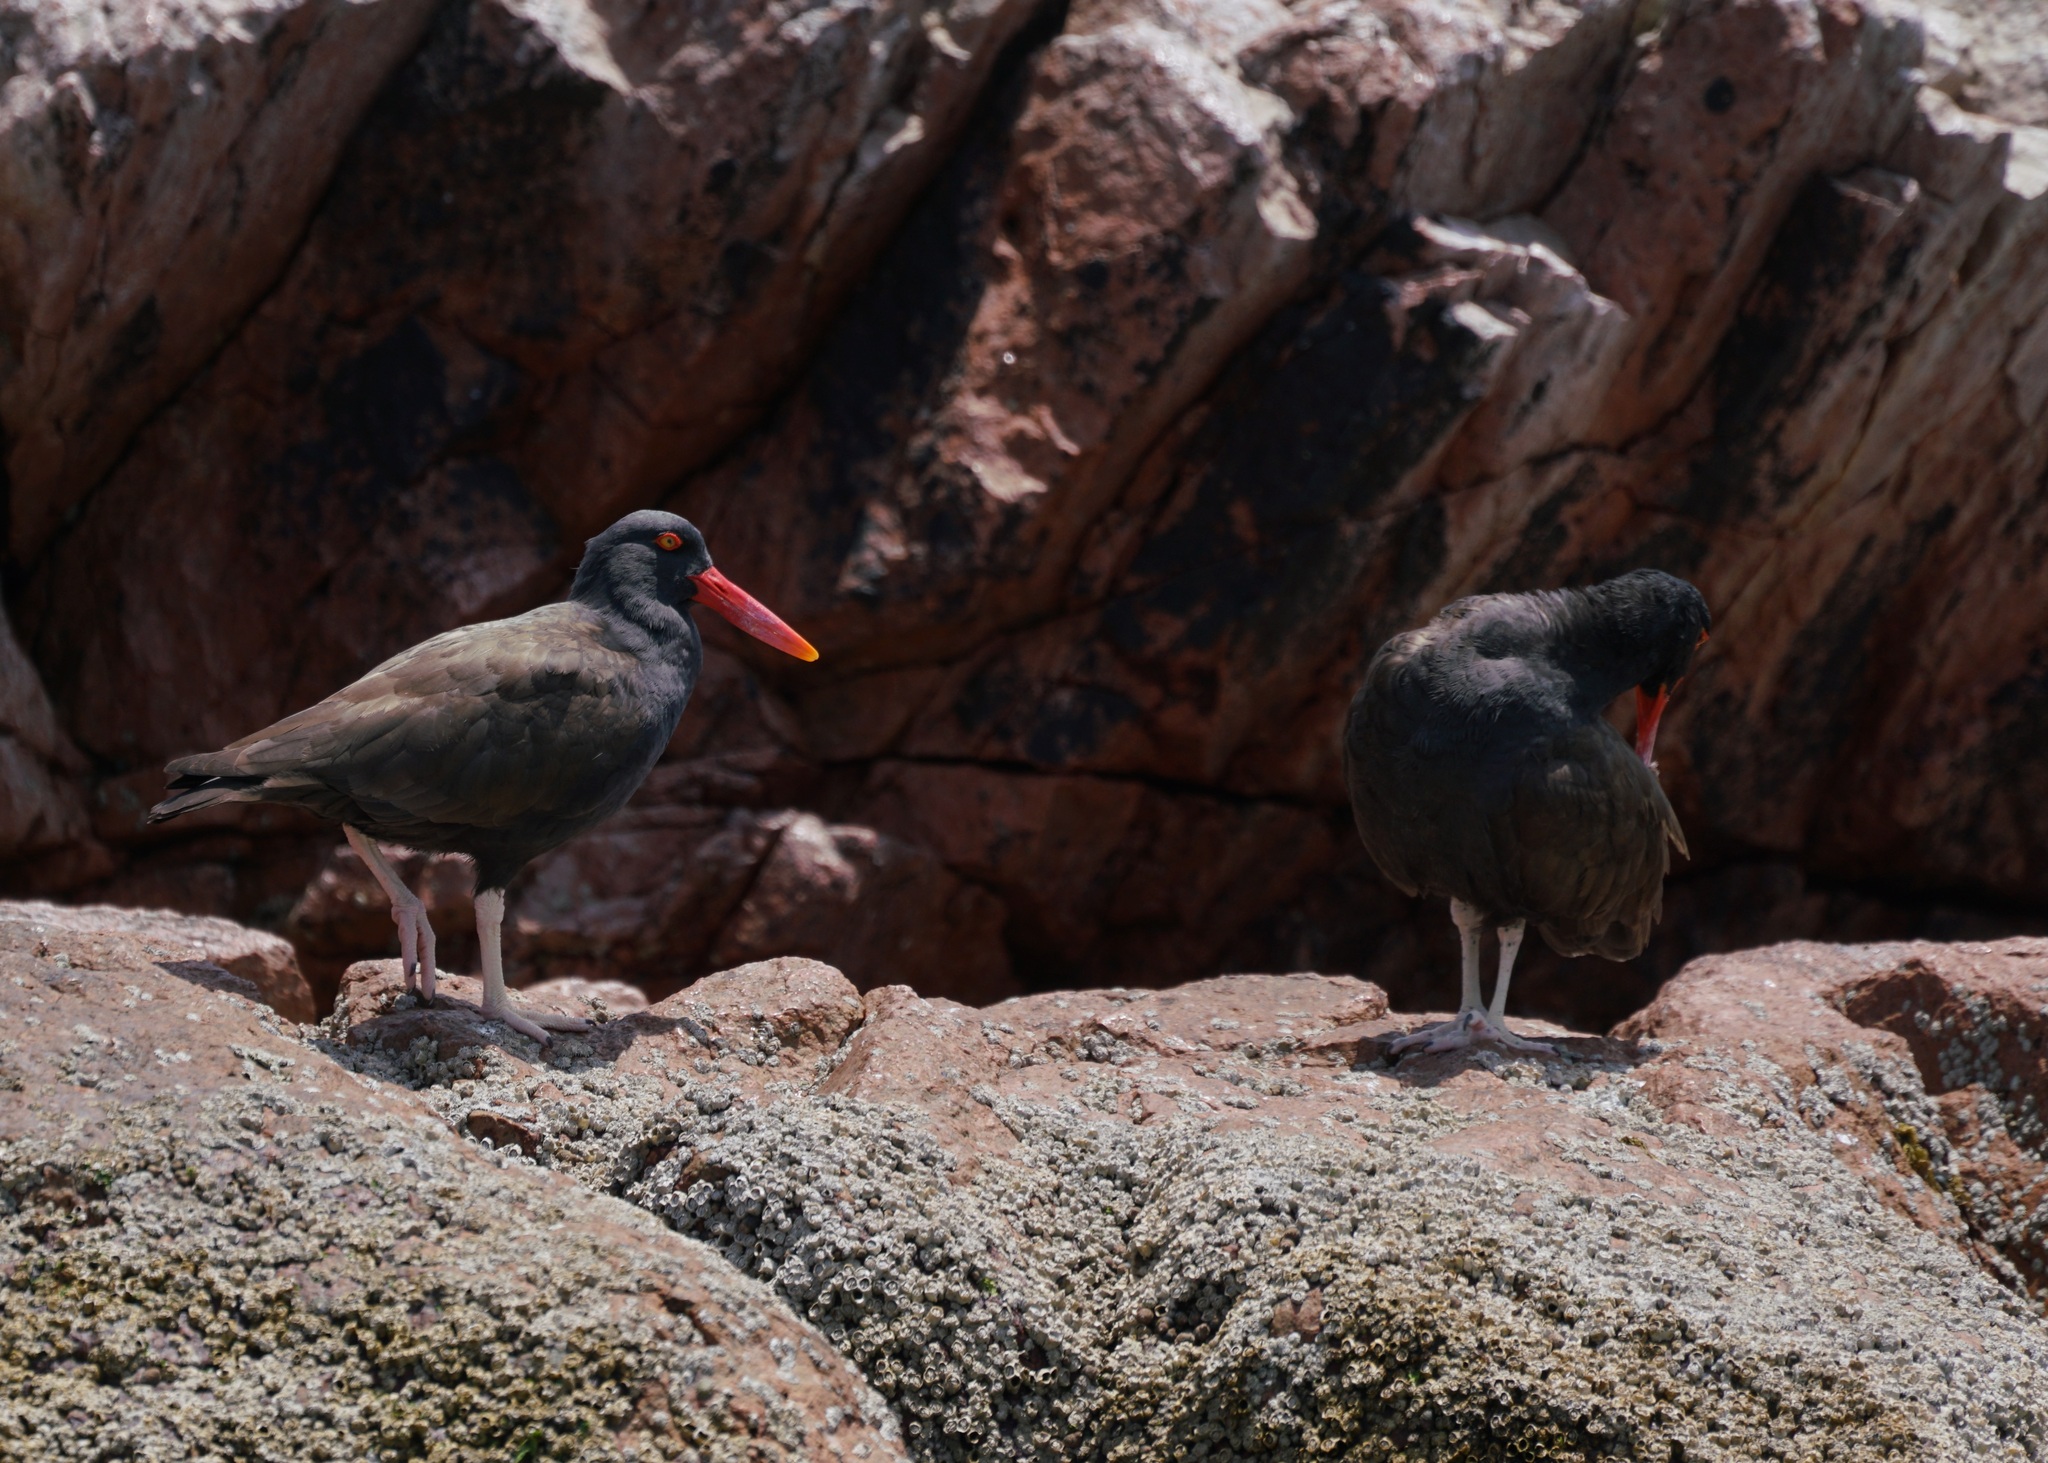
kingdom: Animalia
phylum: Chordata
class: Aves
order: Charadriiformes
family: Haematopodidae
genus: Haematopus
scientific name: Haematopus ater
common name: Blackish oystercatcher
